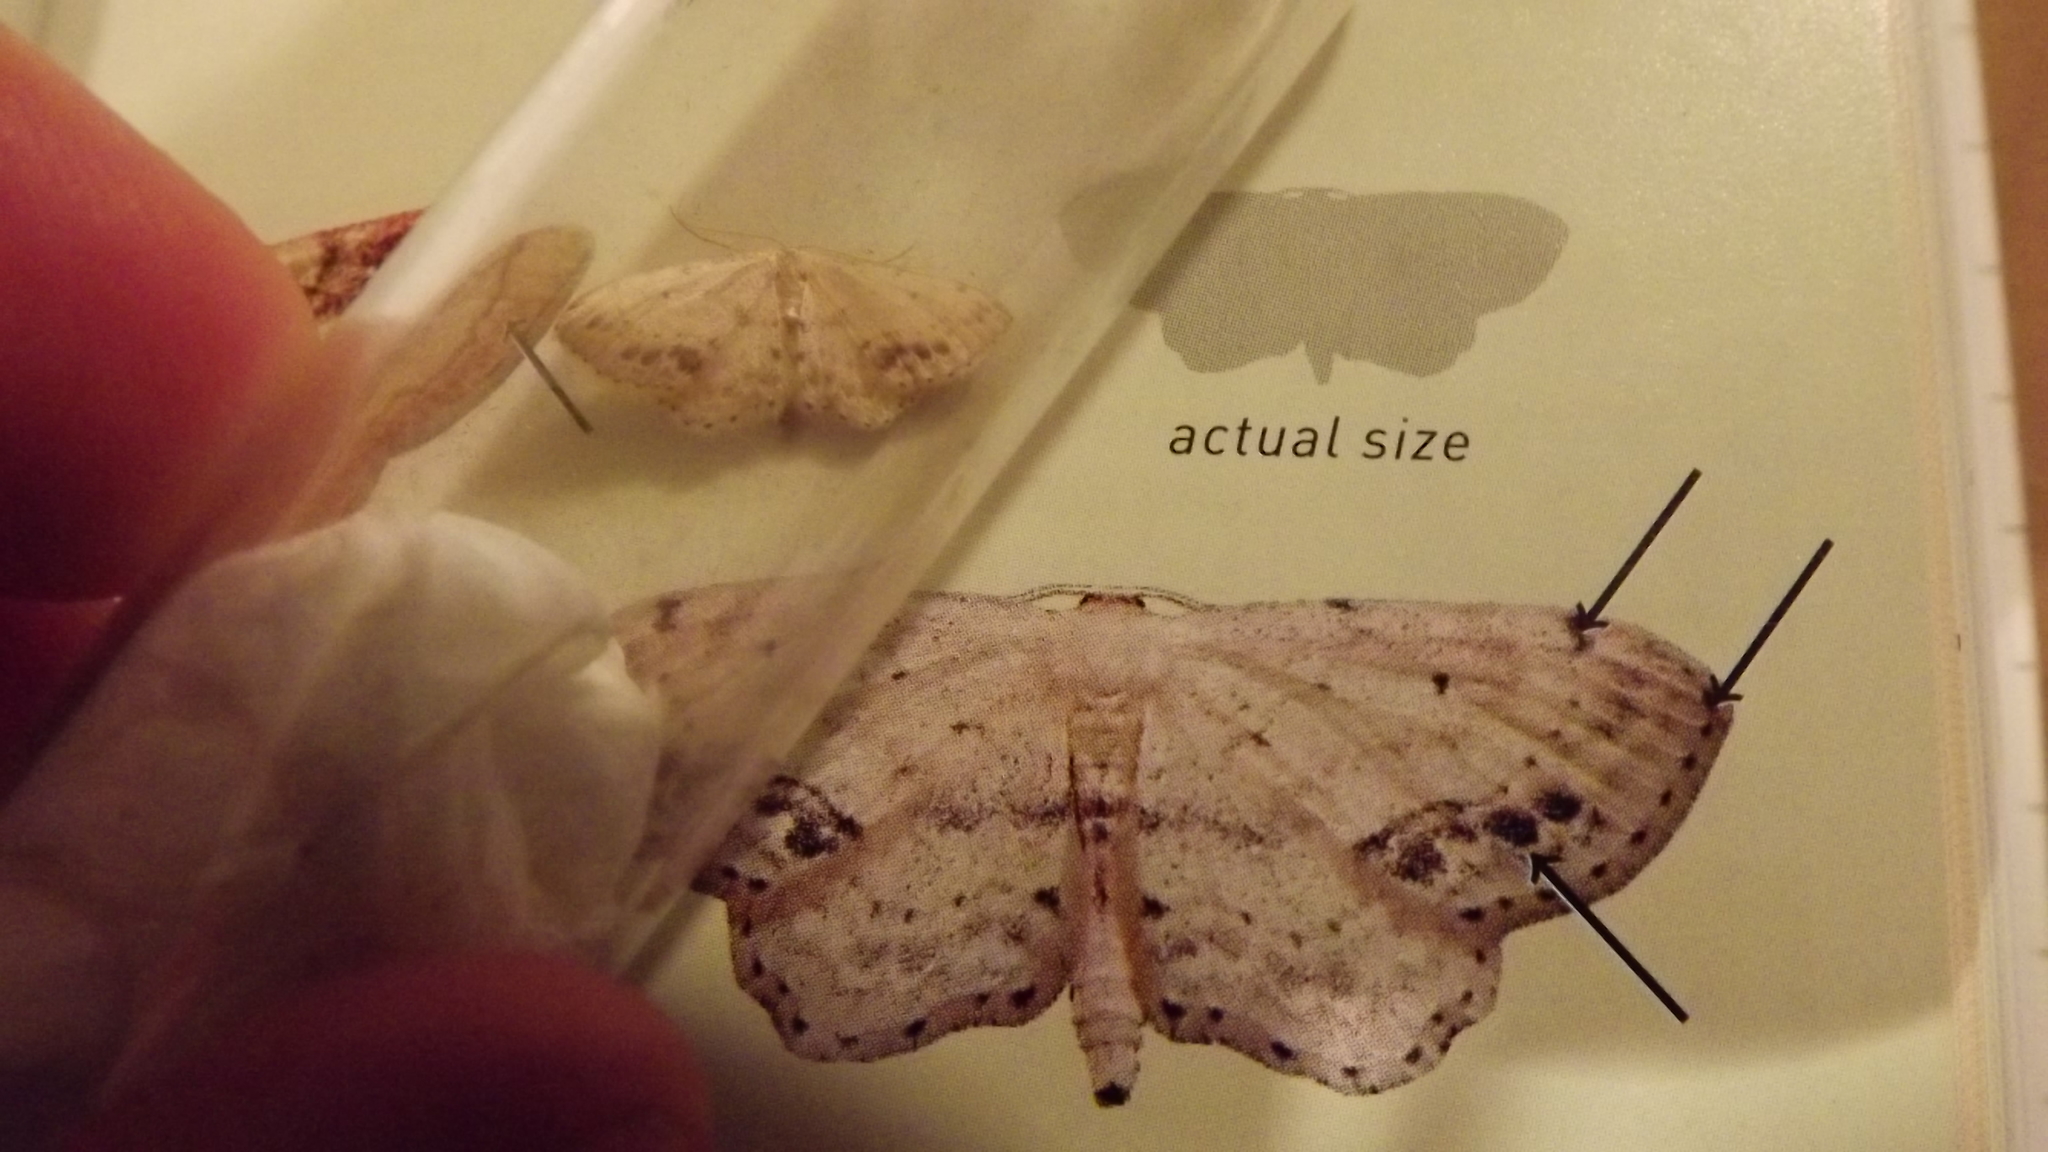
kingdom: Animalia
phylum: Arthropoda
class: Insecta
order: Lepidoptera
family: Geometridae
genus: Idaea
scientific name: Idaea dimidiata
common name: Single-dotted wave
